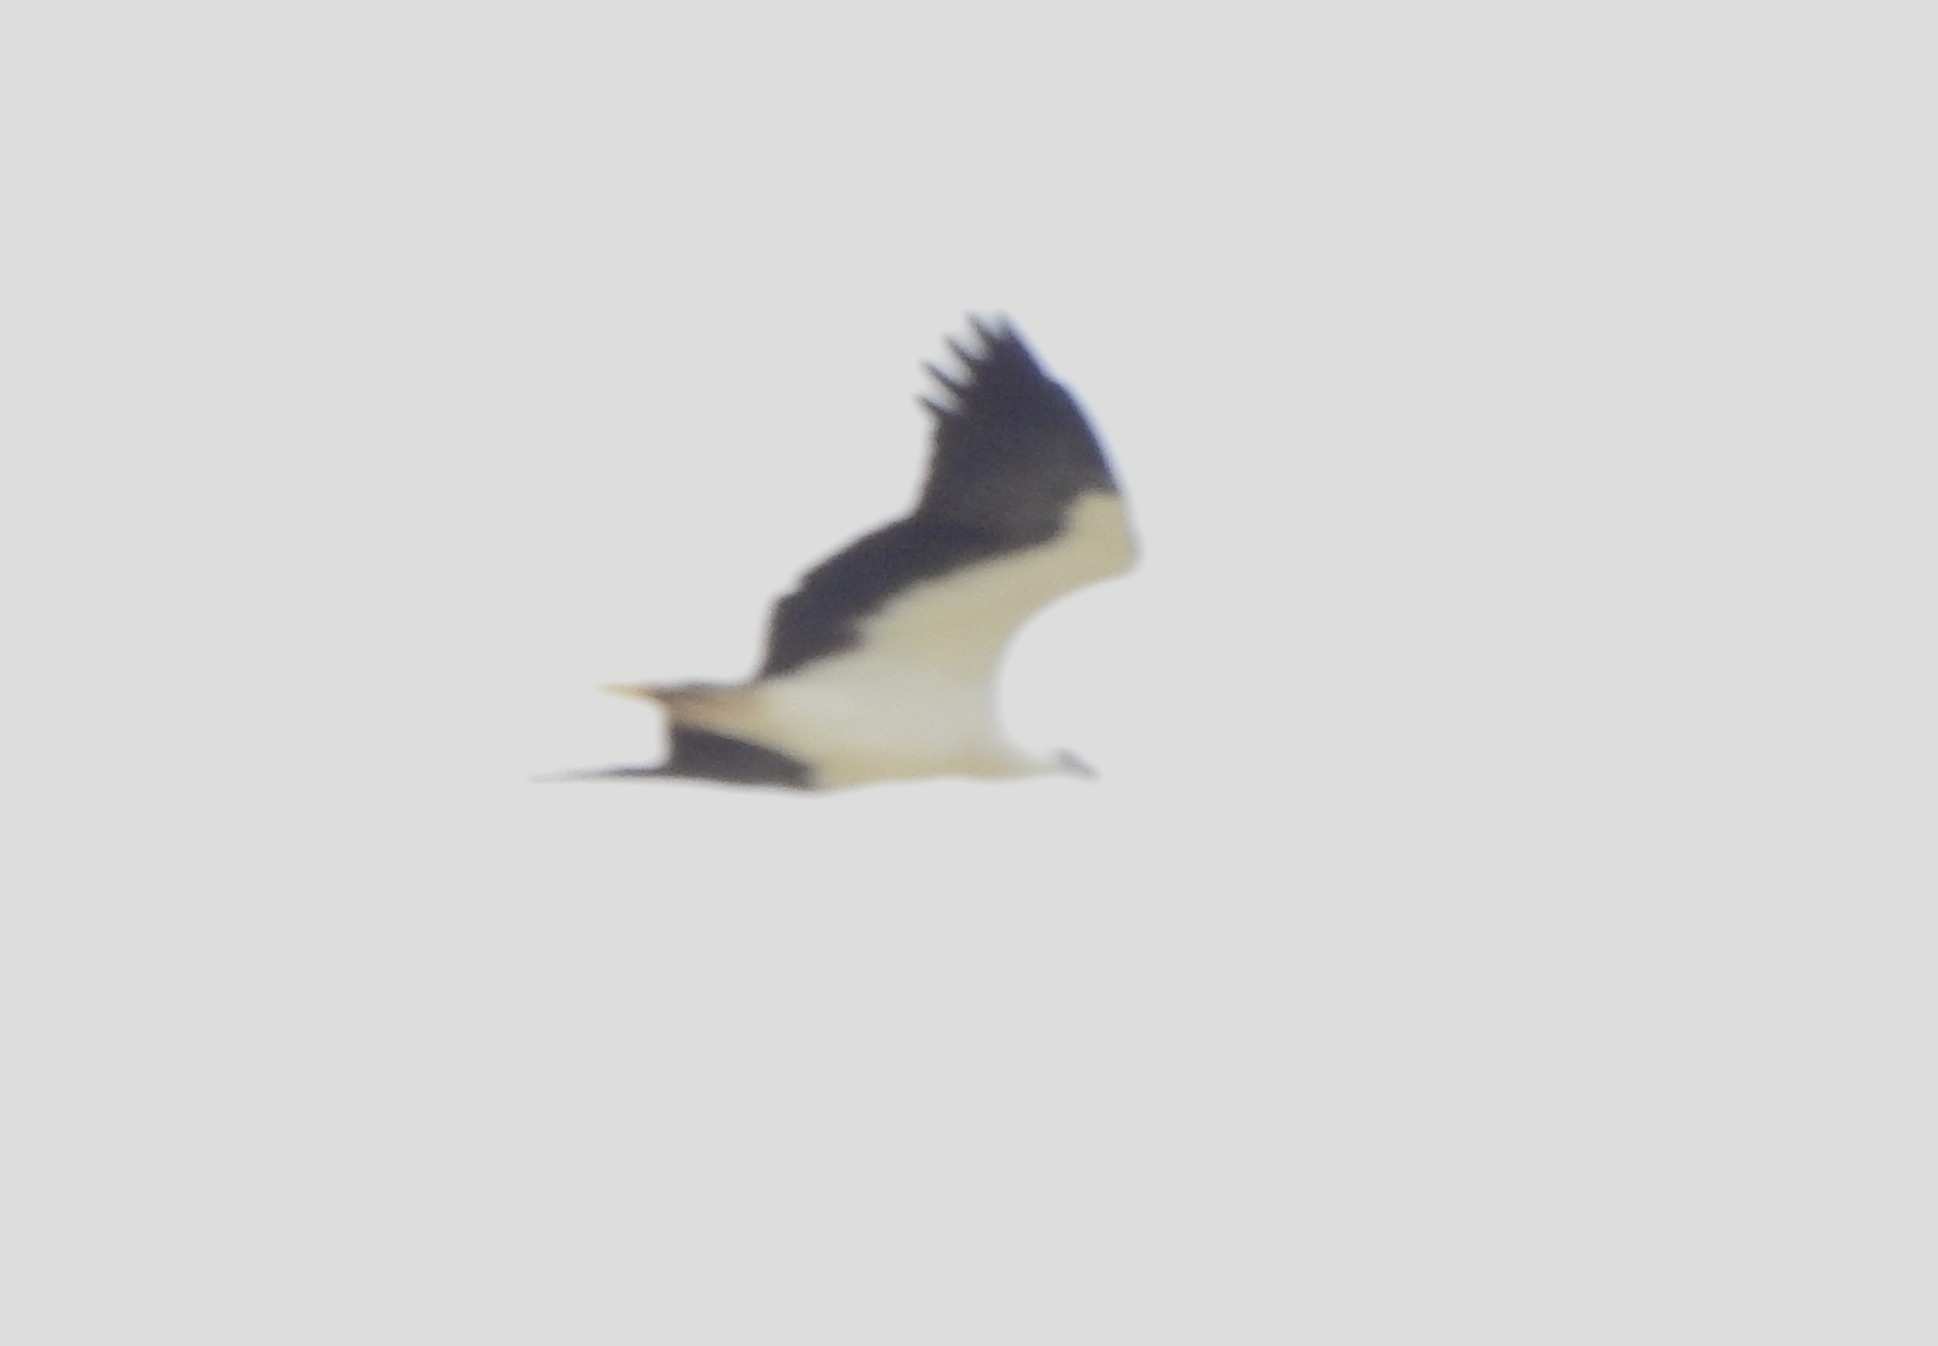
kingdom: Animalia
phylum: Chordata
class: Aves
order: Accipitriformes
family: Accipitridae
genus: Haliaeetus
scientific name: Haliaeetus leucogaster
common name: White-bellied sea eagle
